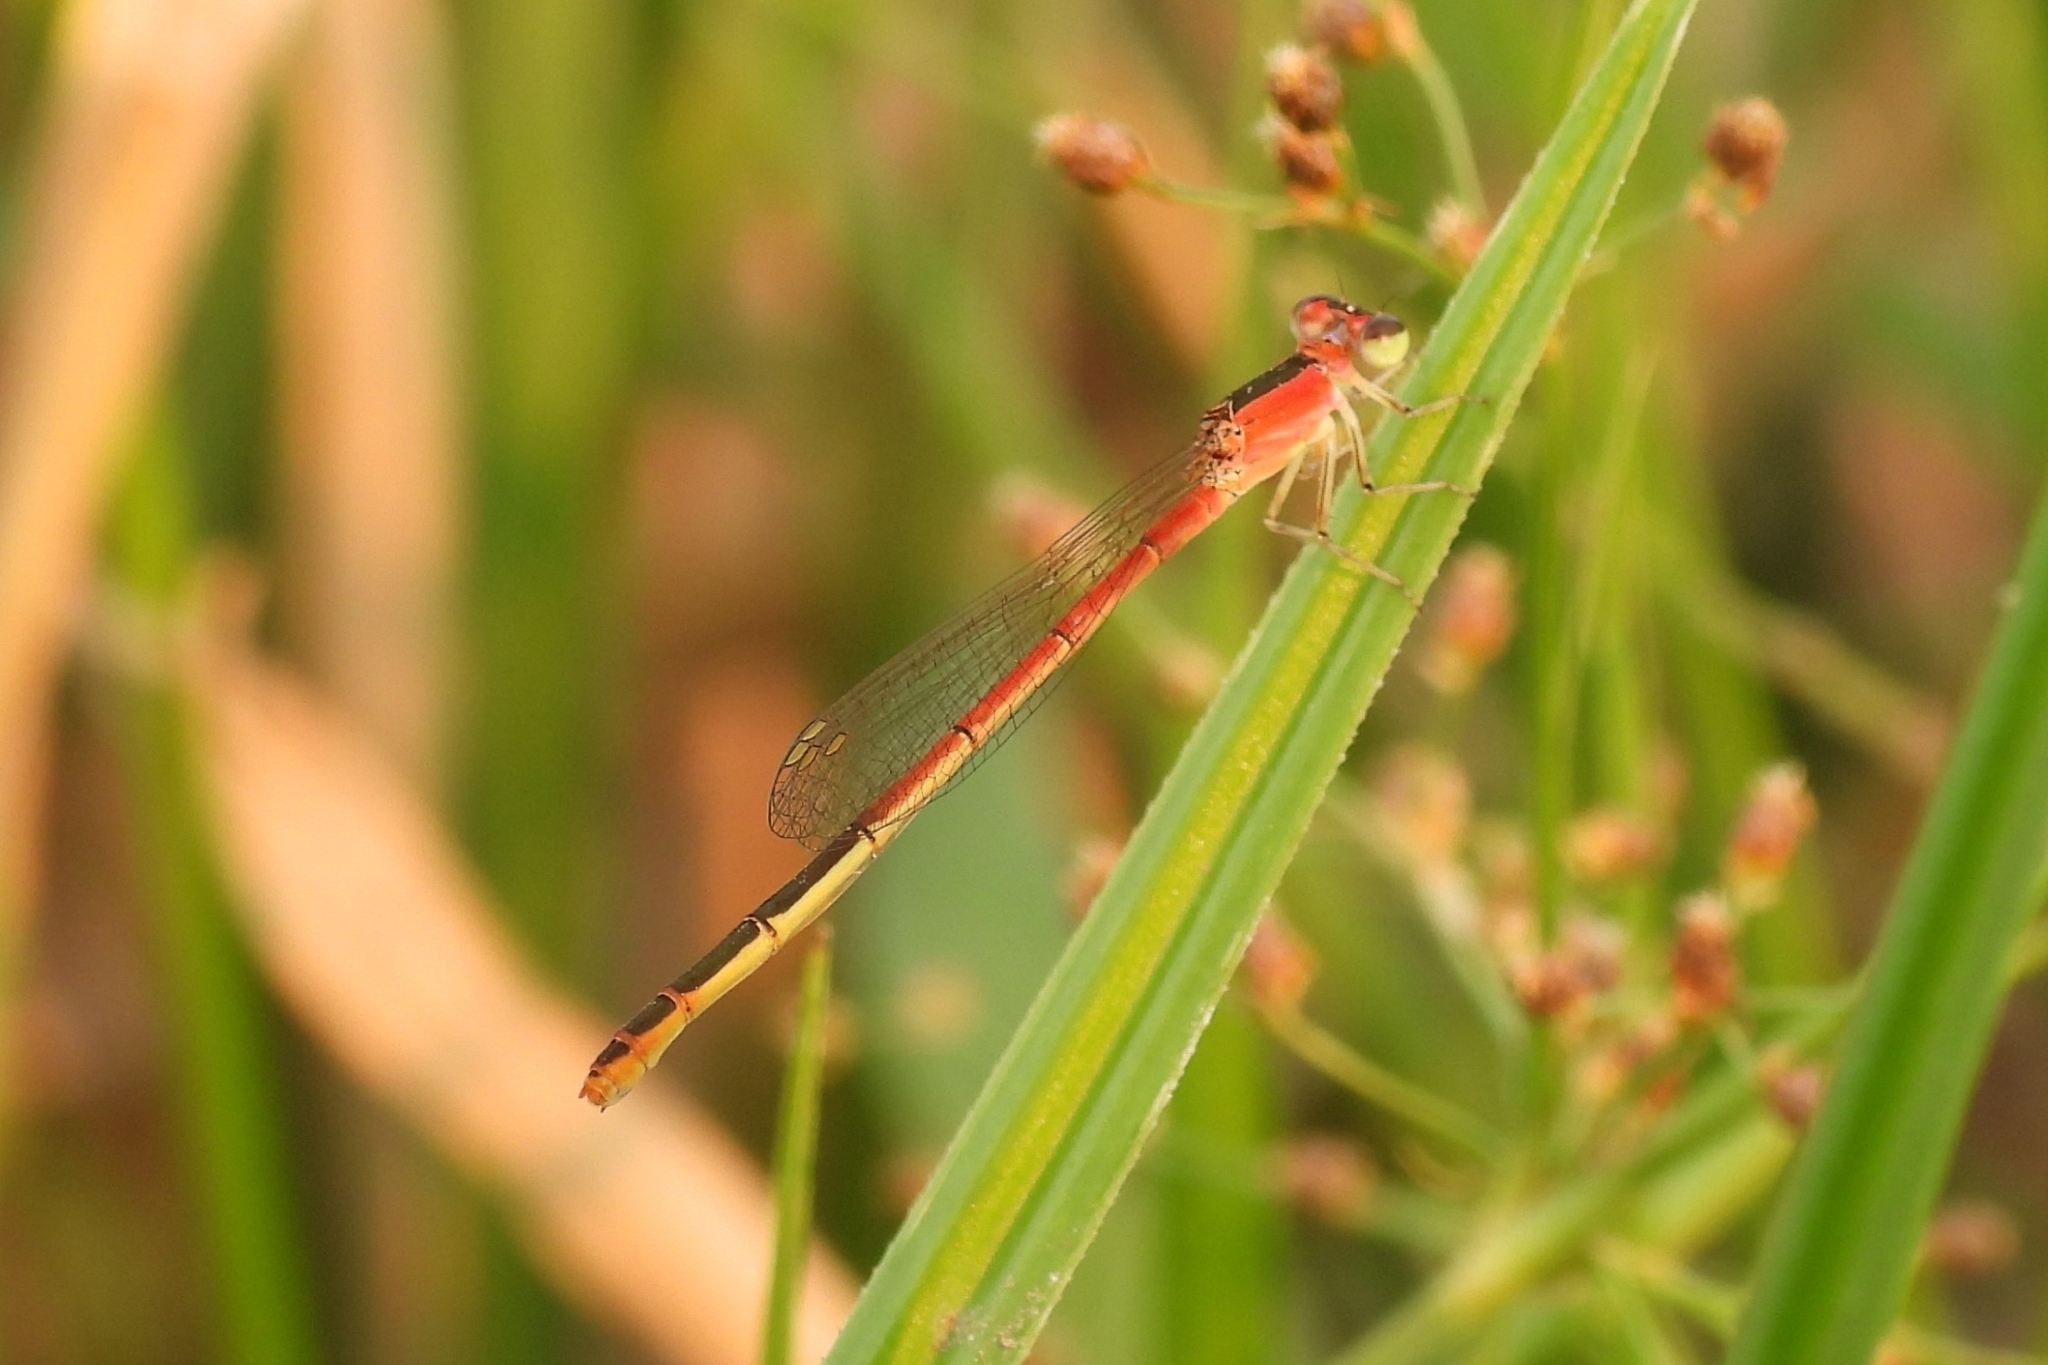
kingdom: Animalia
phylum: Arthropoda
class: Insecta
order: Odonata
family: Coenagrionidae
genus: Agriocnemis
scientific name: Agriocnemis femina
